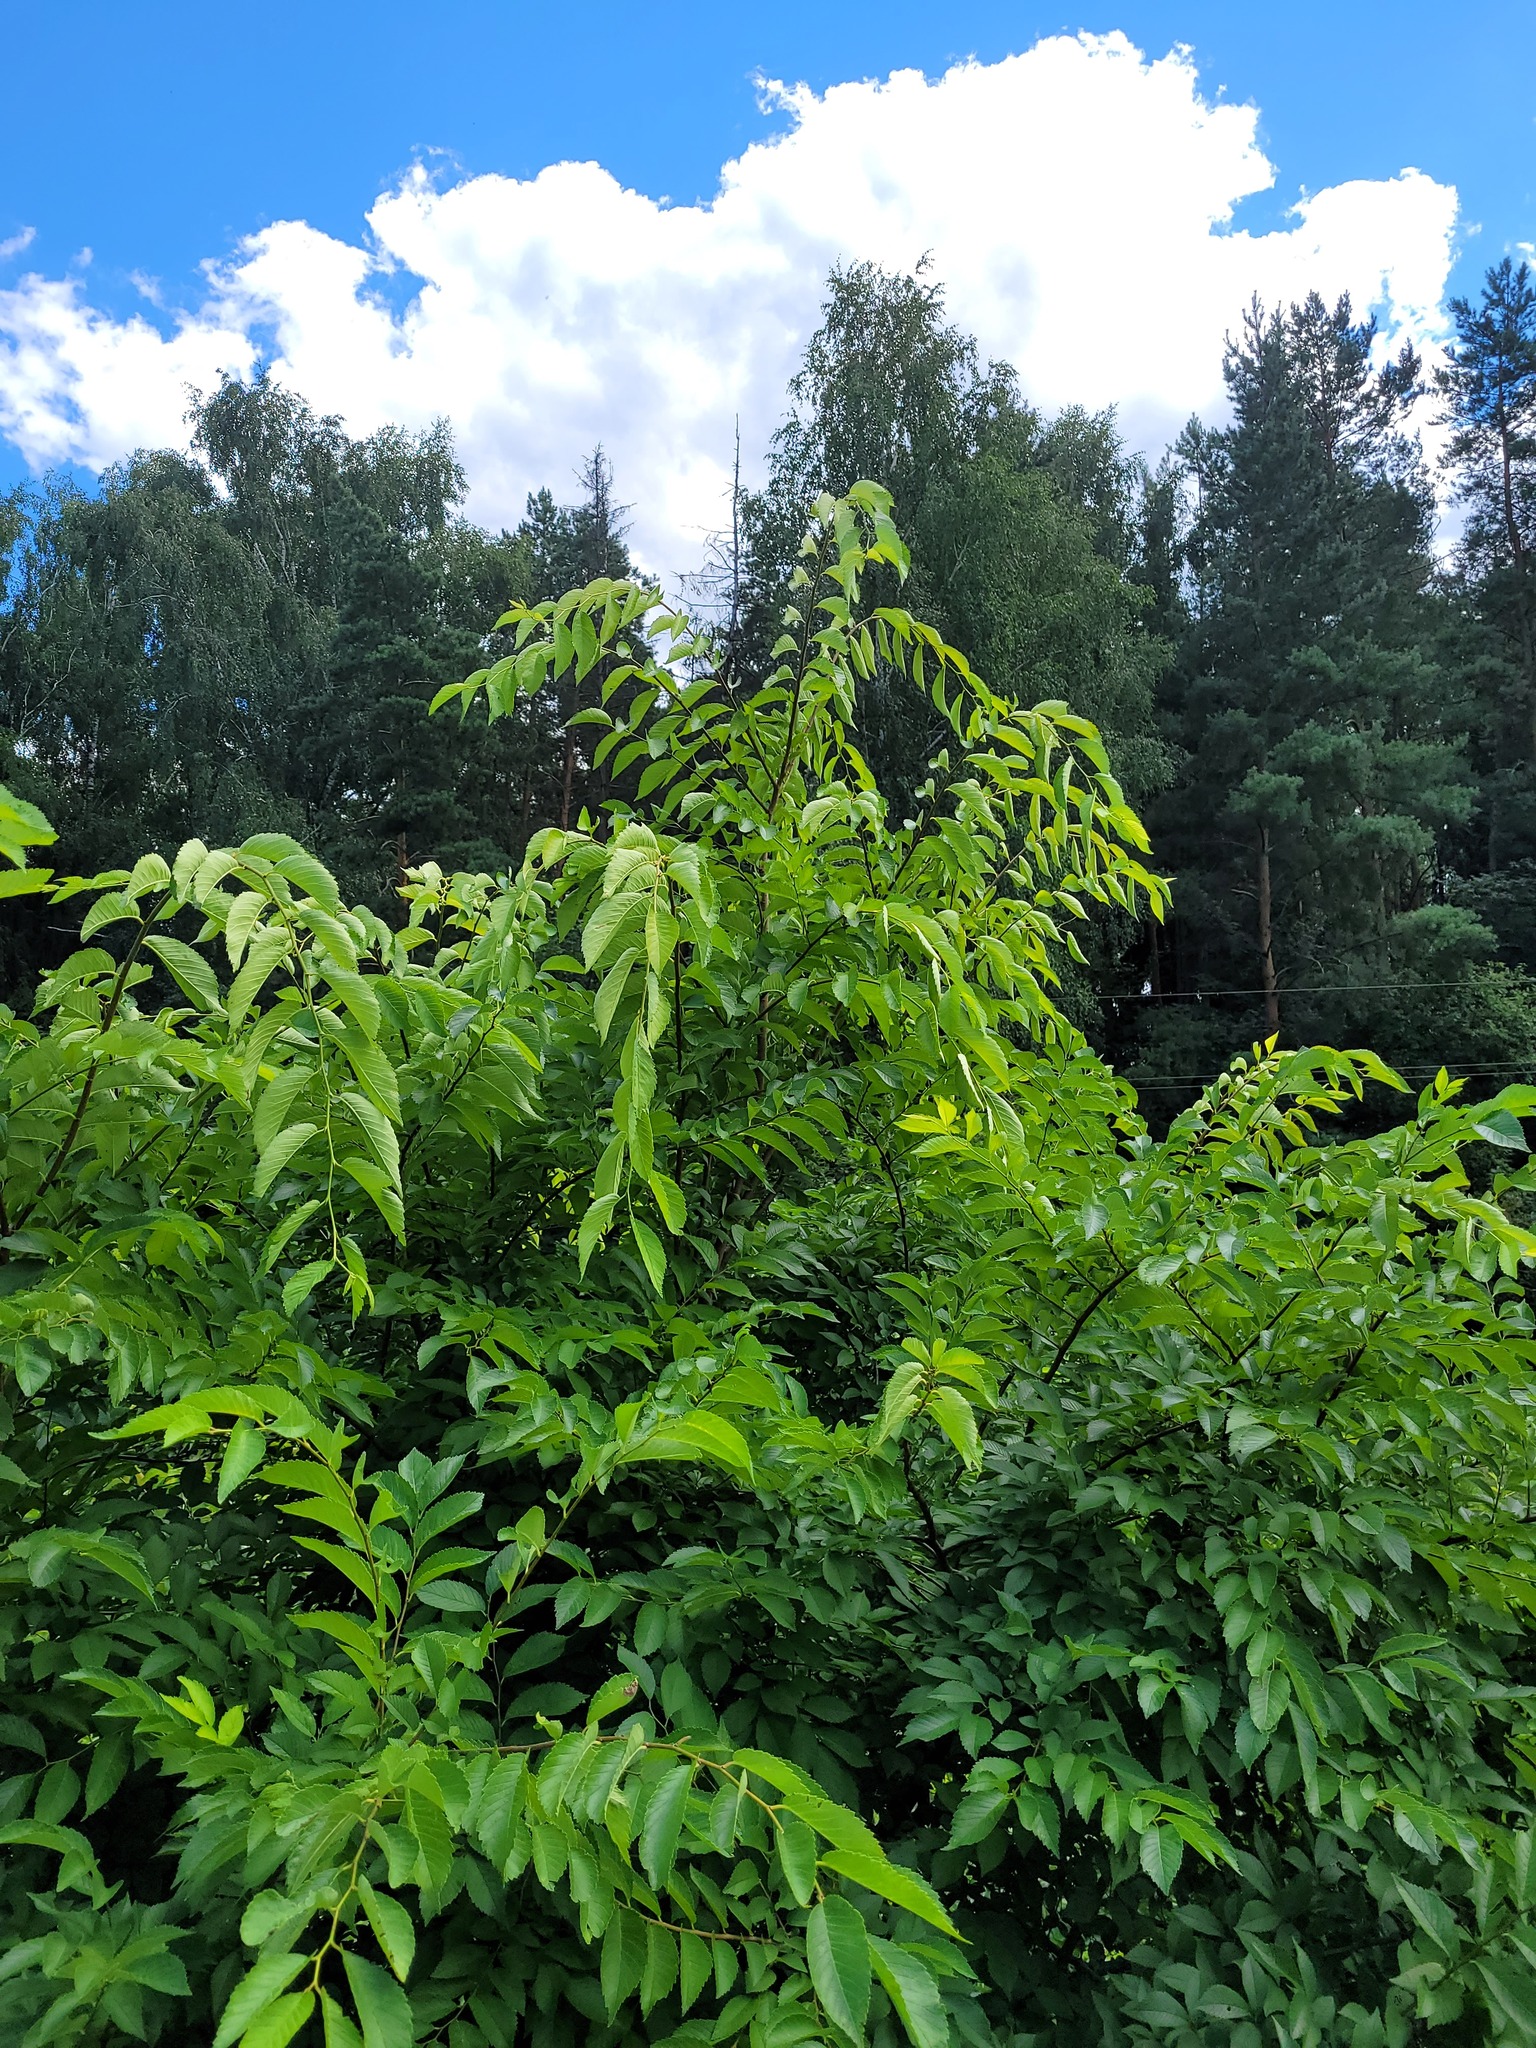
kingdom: Plantae
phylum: Tracheophyta
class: Magnoliopsida
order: Rosales
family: Ulmaceae
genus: Ulmus
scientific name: Ulmus pumila
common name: Siberian elm
